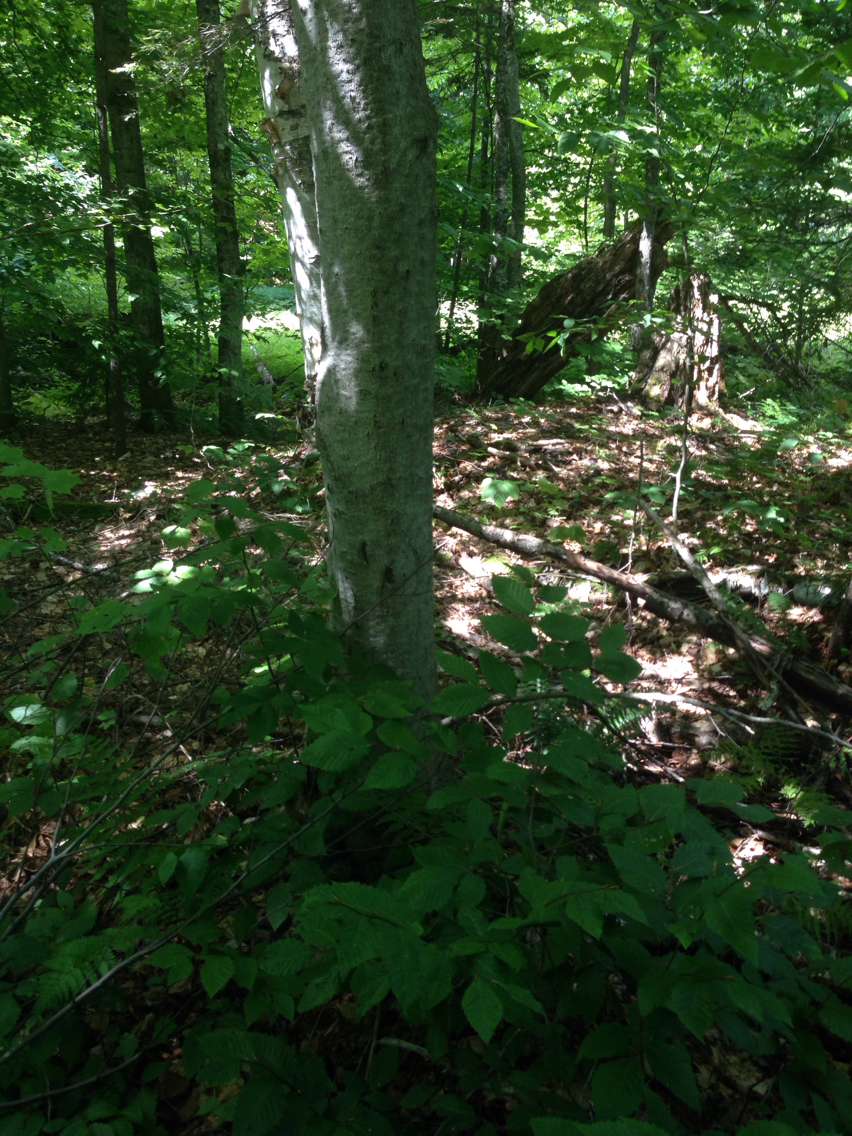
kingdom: Plantae
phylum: Tracheophyta
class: Magnoliopsida
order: Fagales
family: Fagaceae
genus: Fagus
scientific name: Fagus grandifolia
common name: American beech
